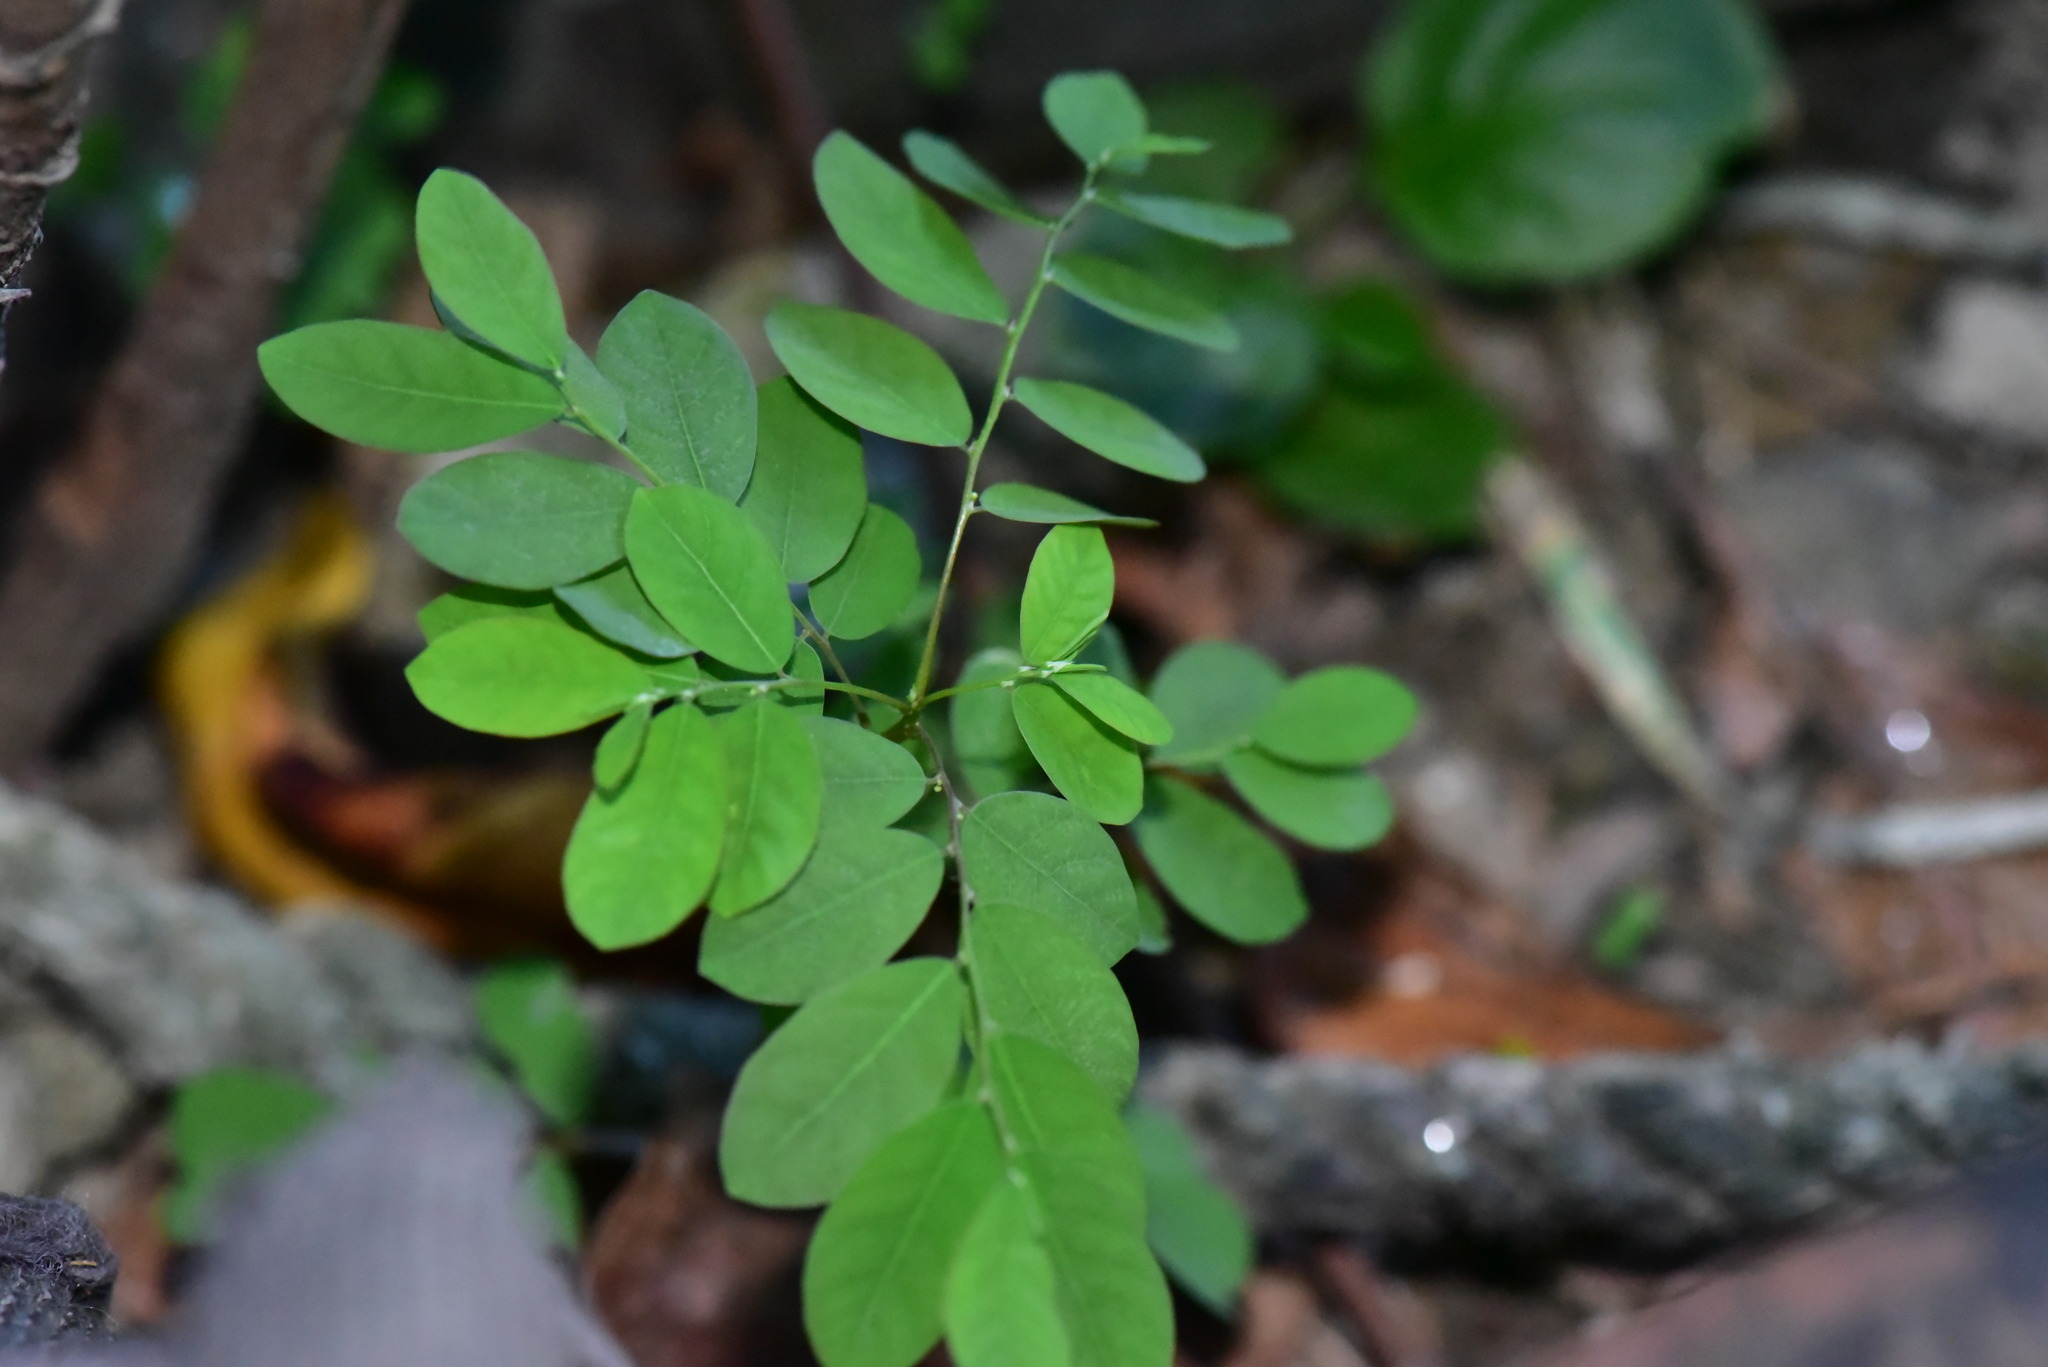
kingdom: Plantae
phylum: Tracheophyta
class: Magnoliopsida
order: Malpighiales
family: Phyllanthaceae
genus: Phyllanthus
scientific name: Phyllanthus tenellus
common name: Mascarene island leaf-flower
